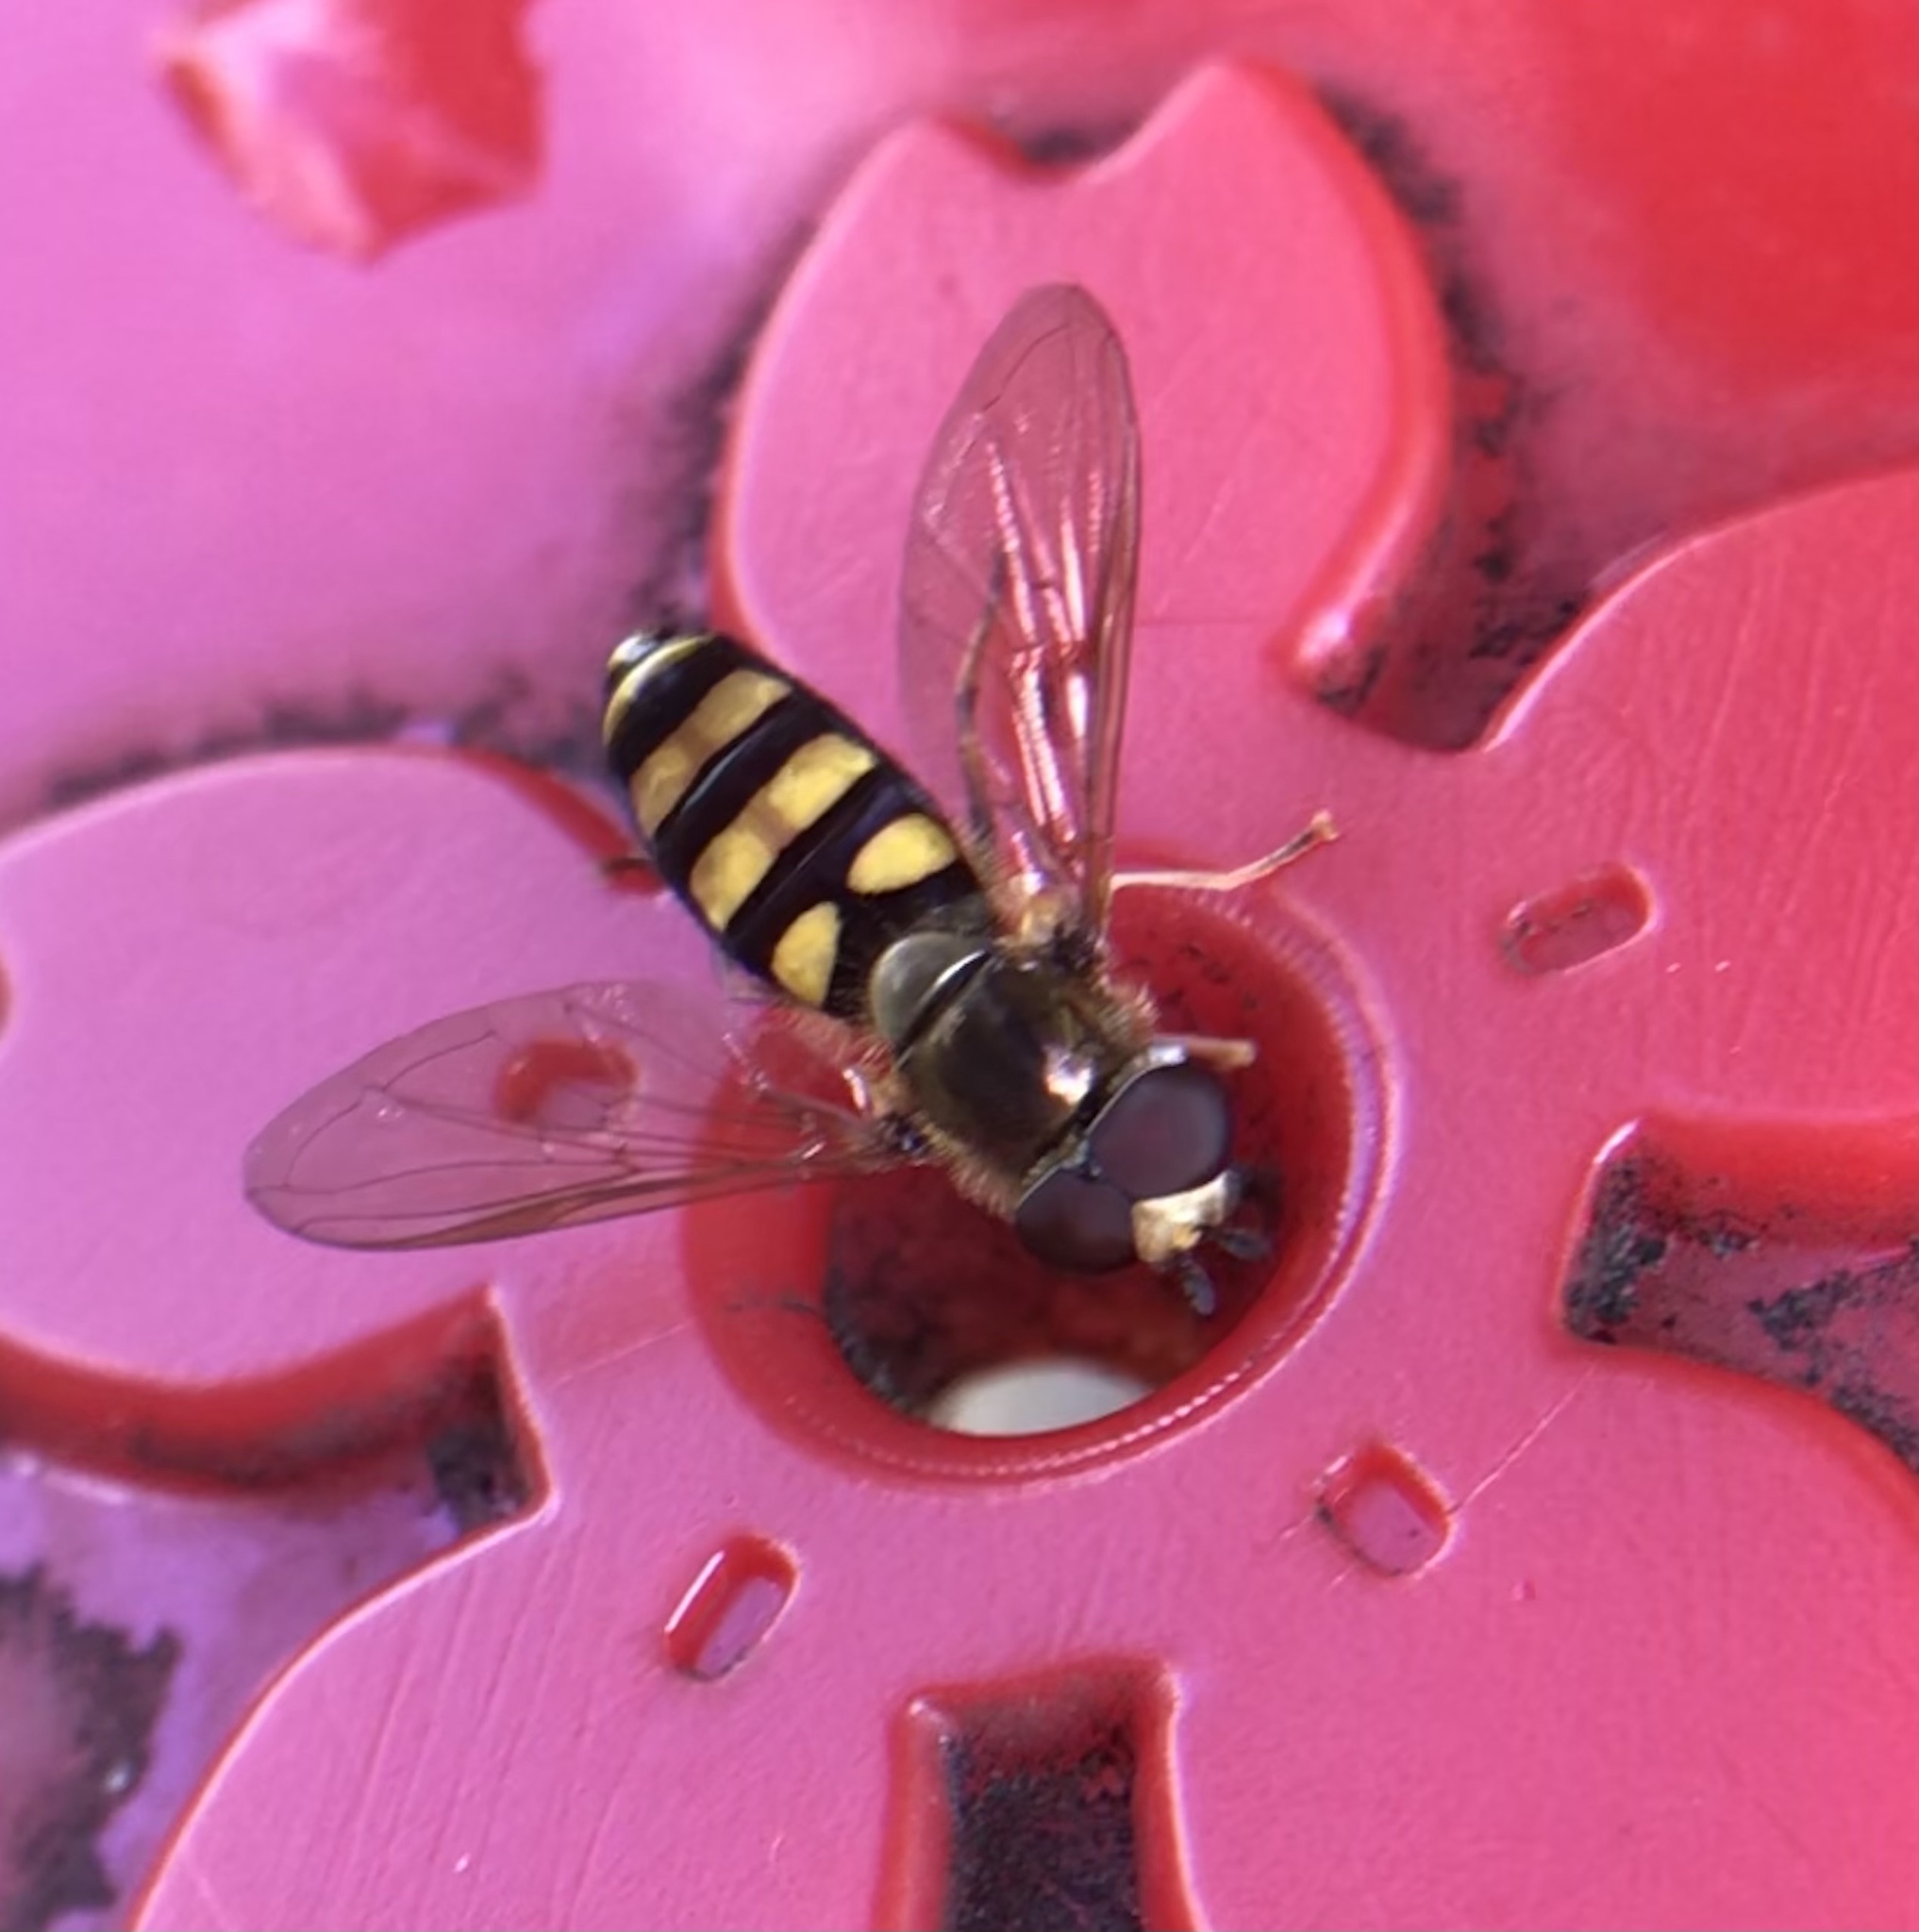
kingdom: Animalia
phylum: Arthropoda
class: Insecta
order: Diptera
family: Syrphidae
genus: Eupeodes
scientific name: Eupeodes
